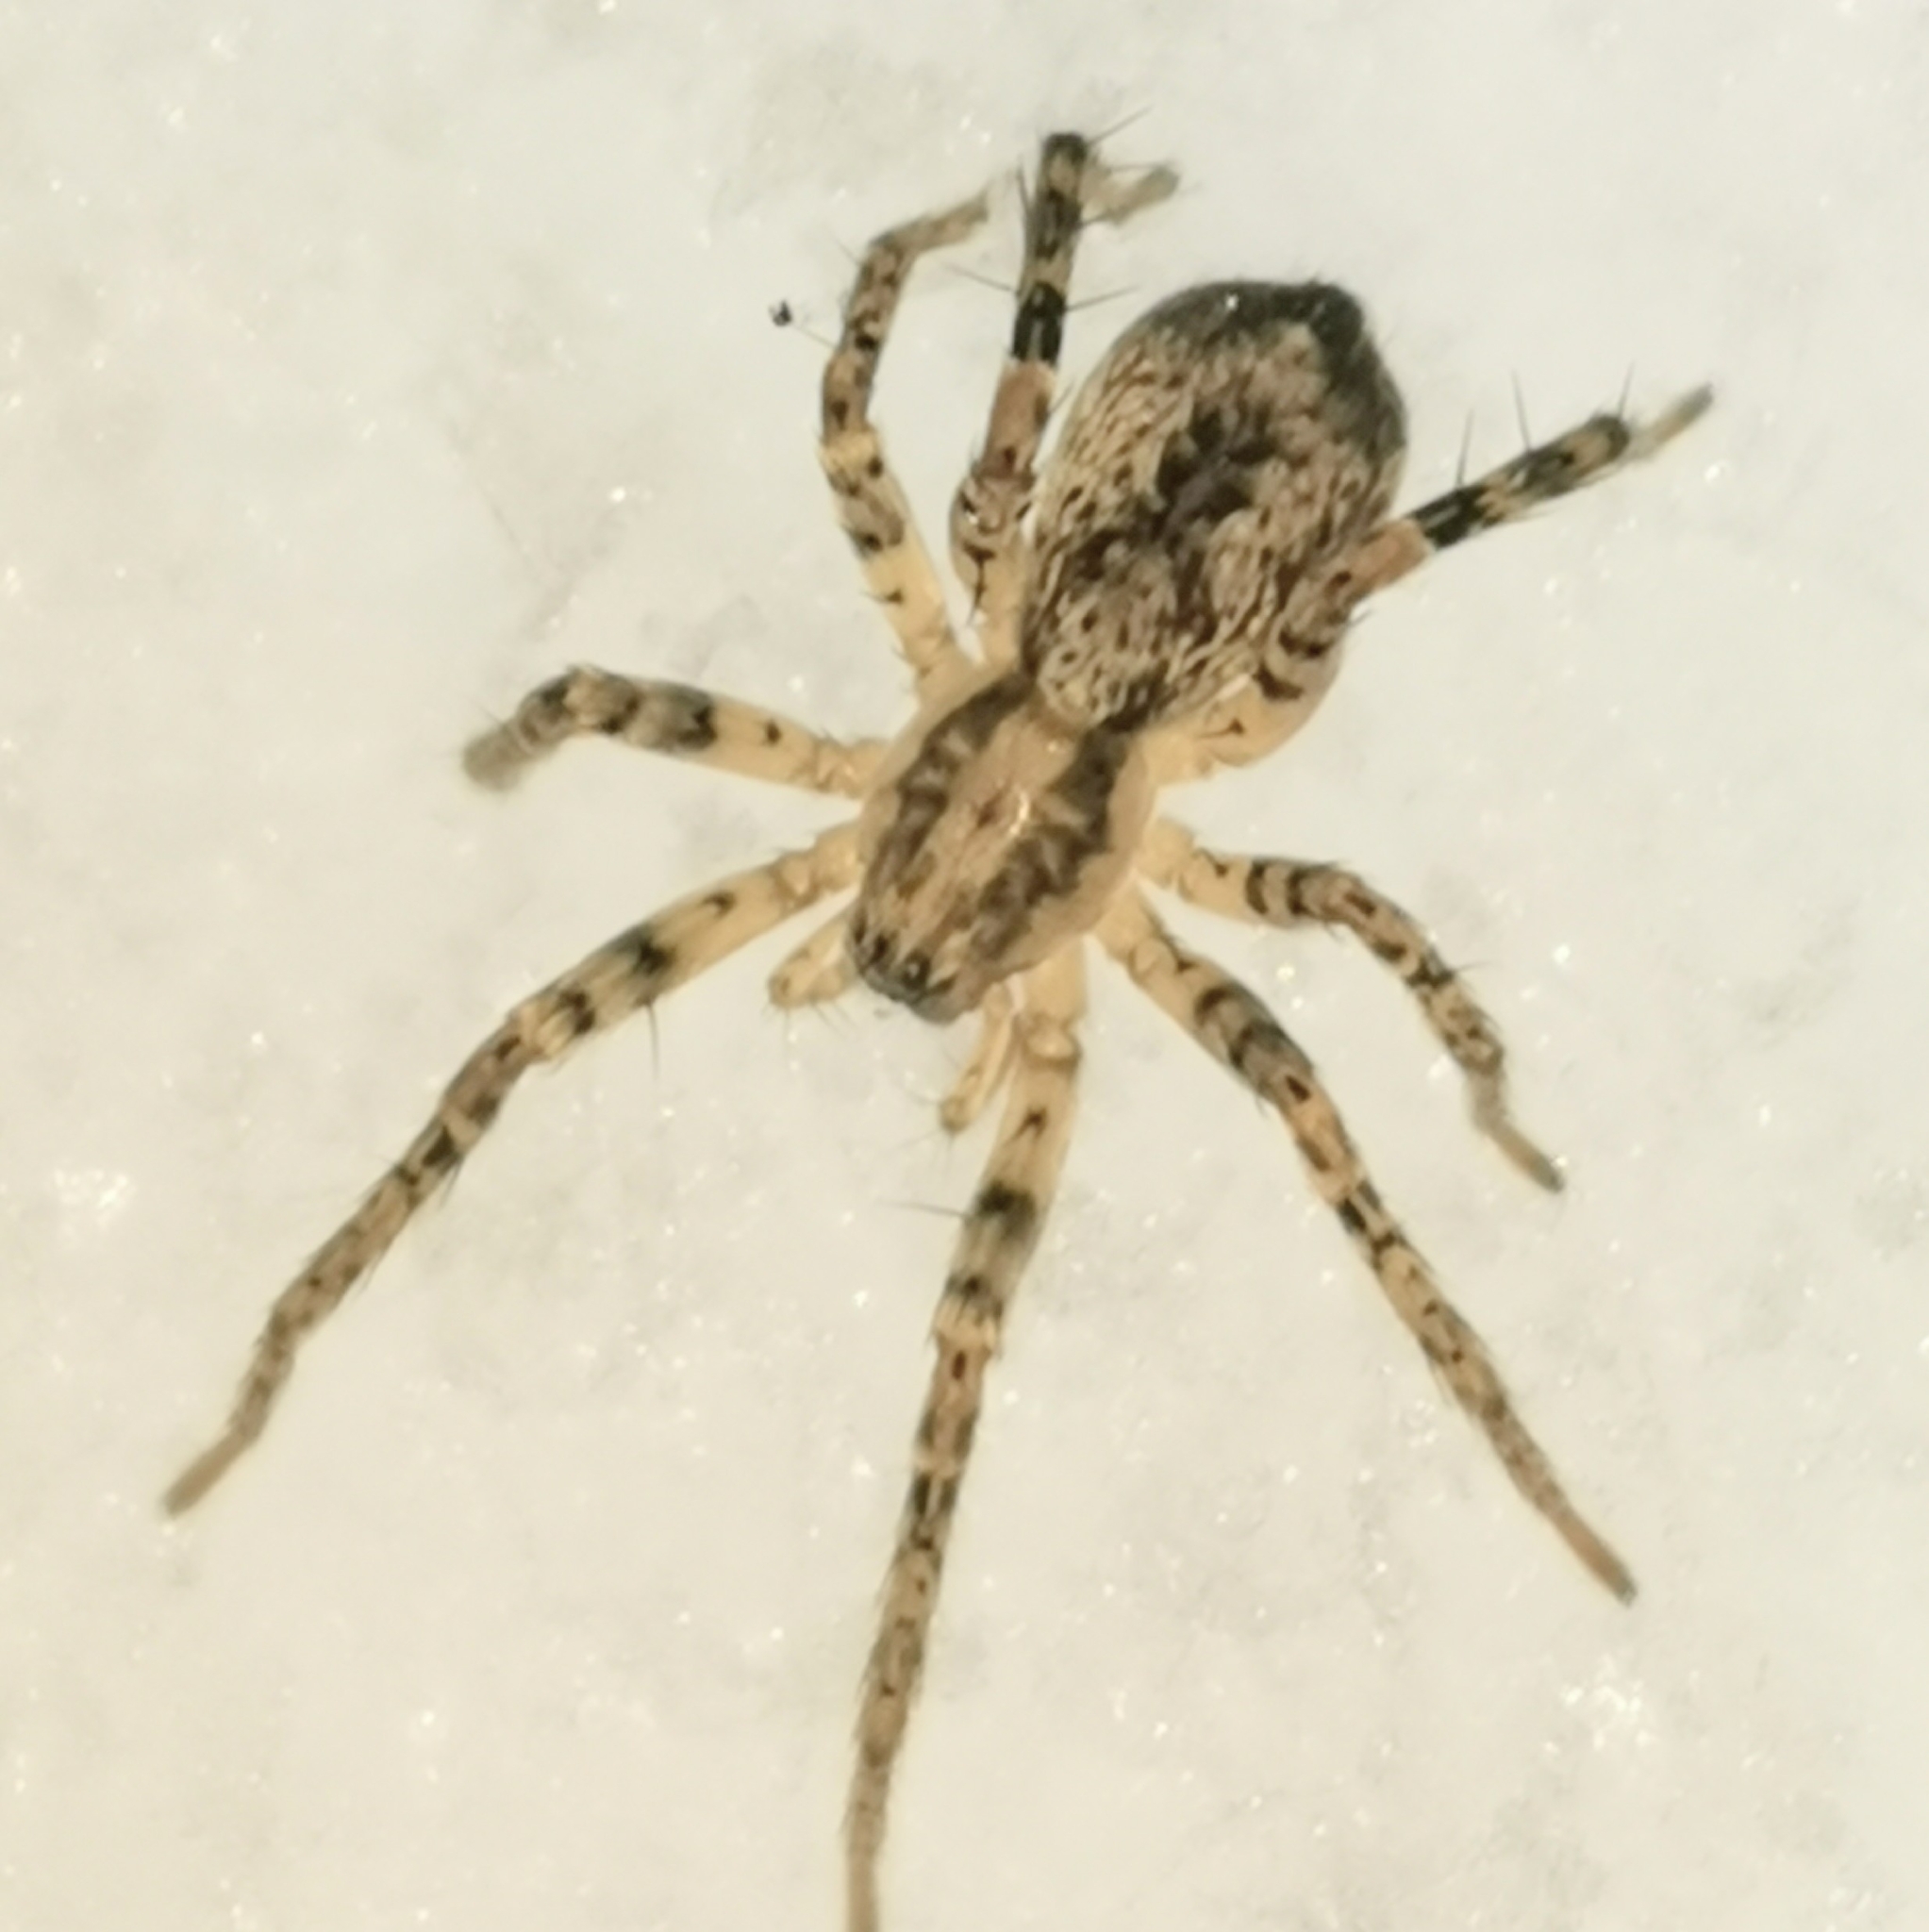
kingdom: Animalia
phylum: Arthropoda
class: Arachnida
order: Araneae
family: Anyphaenidae
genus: Anyphaena
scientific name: Anyphaena accentuata
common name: Buzzing spider
